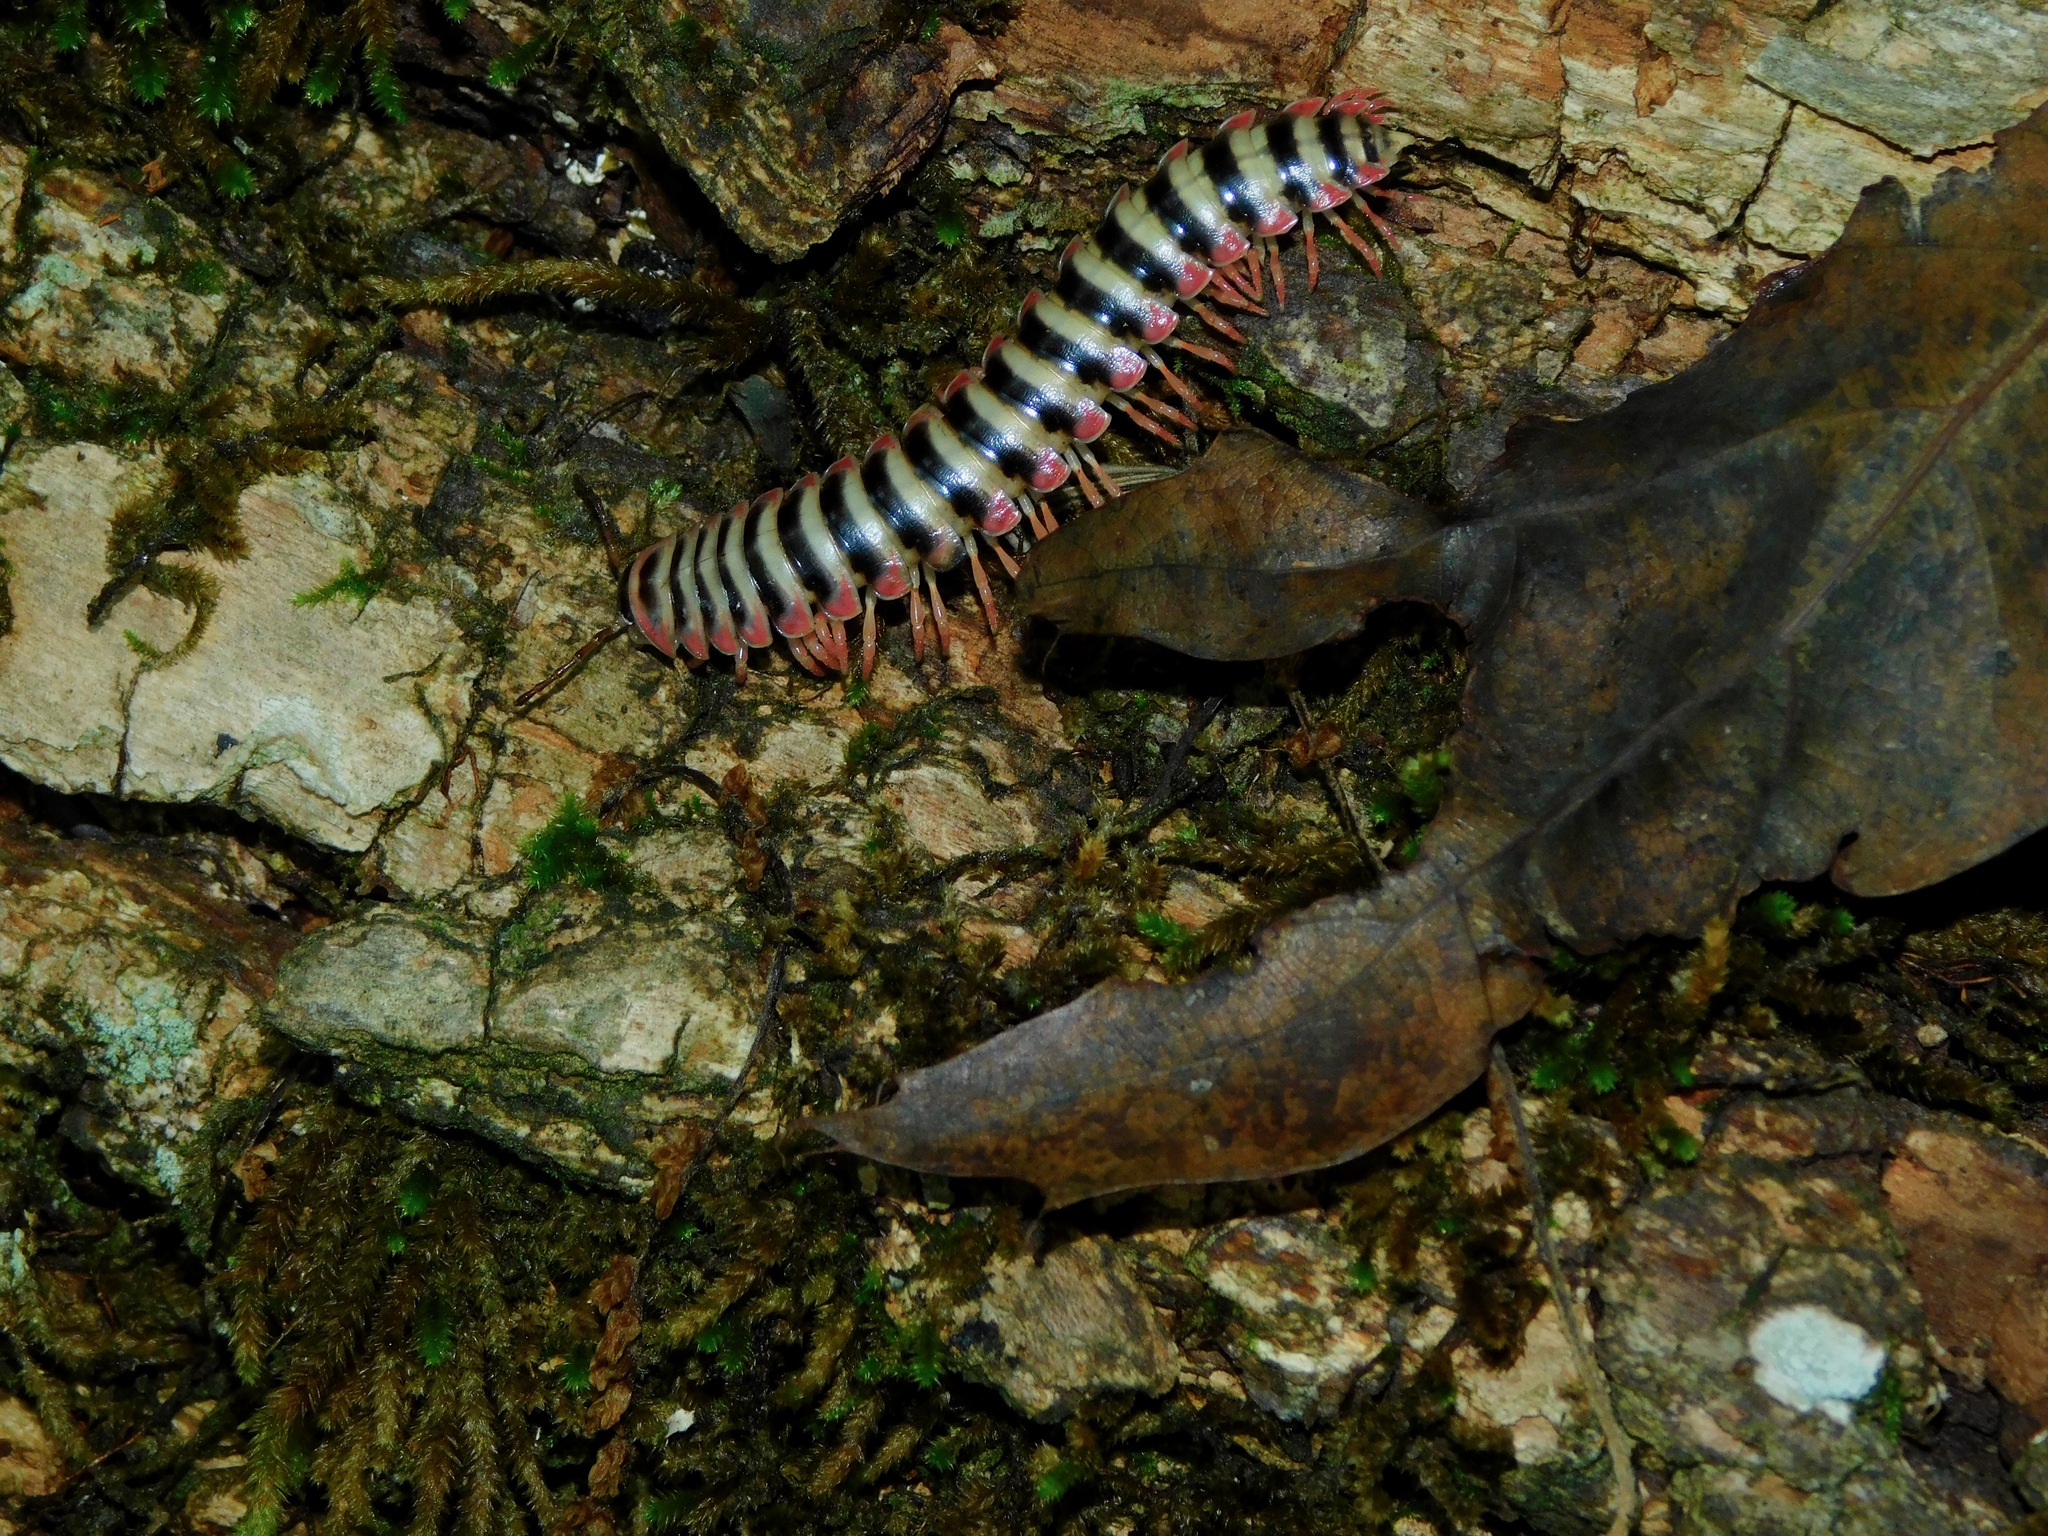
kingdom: Animalia
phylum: Arthropoda
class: Diplopoda
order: Polydesmida
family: Xystodesmidae
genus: Sigmoria
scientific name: Sigmoria nantahalae
